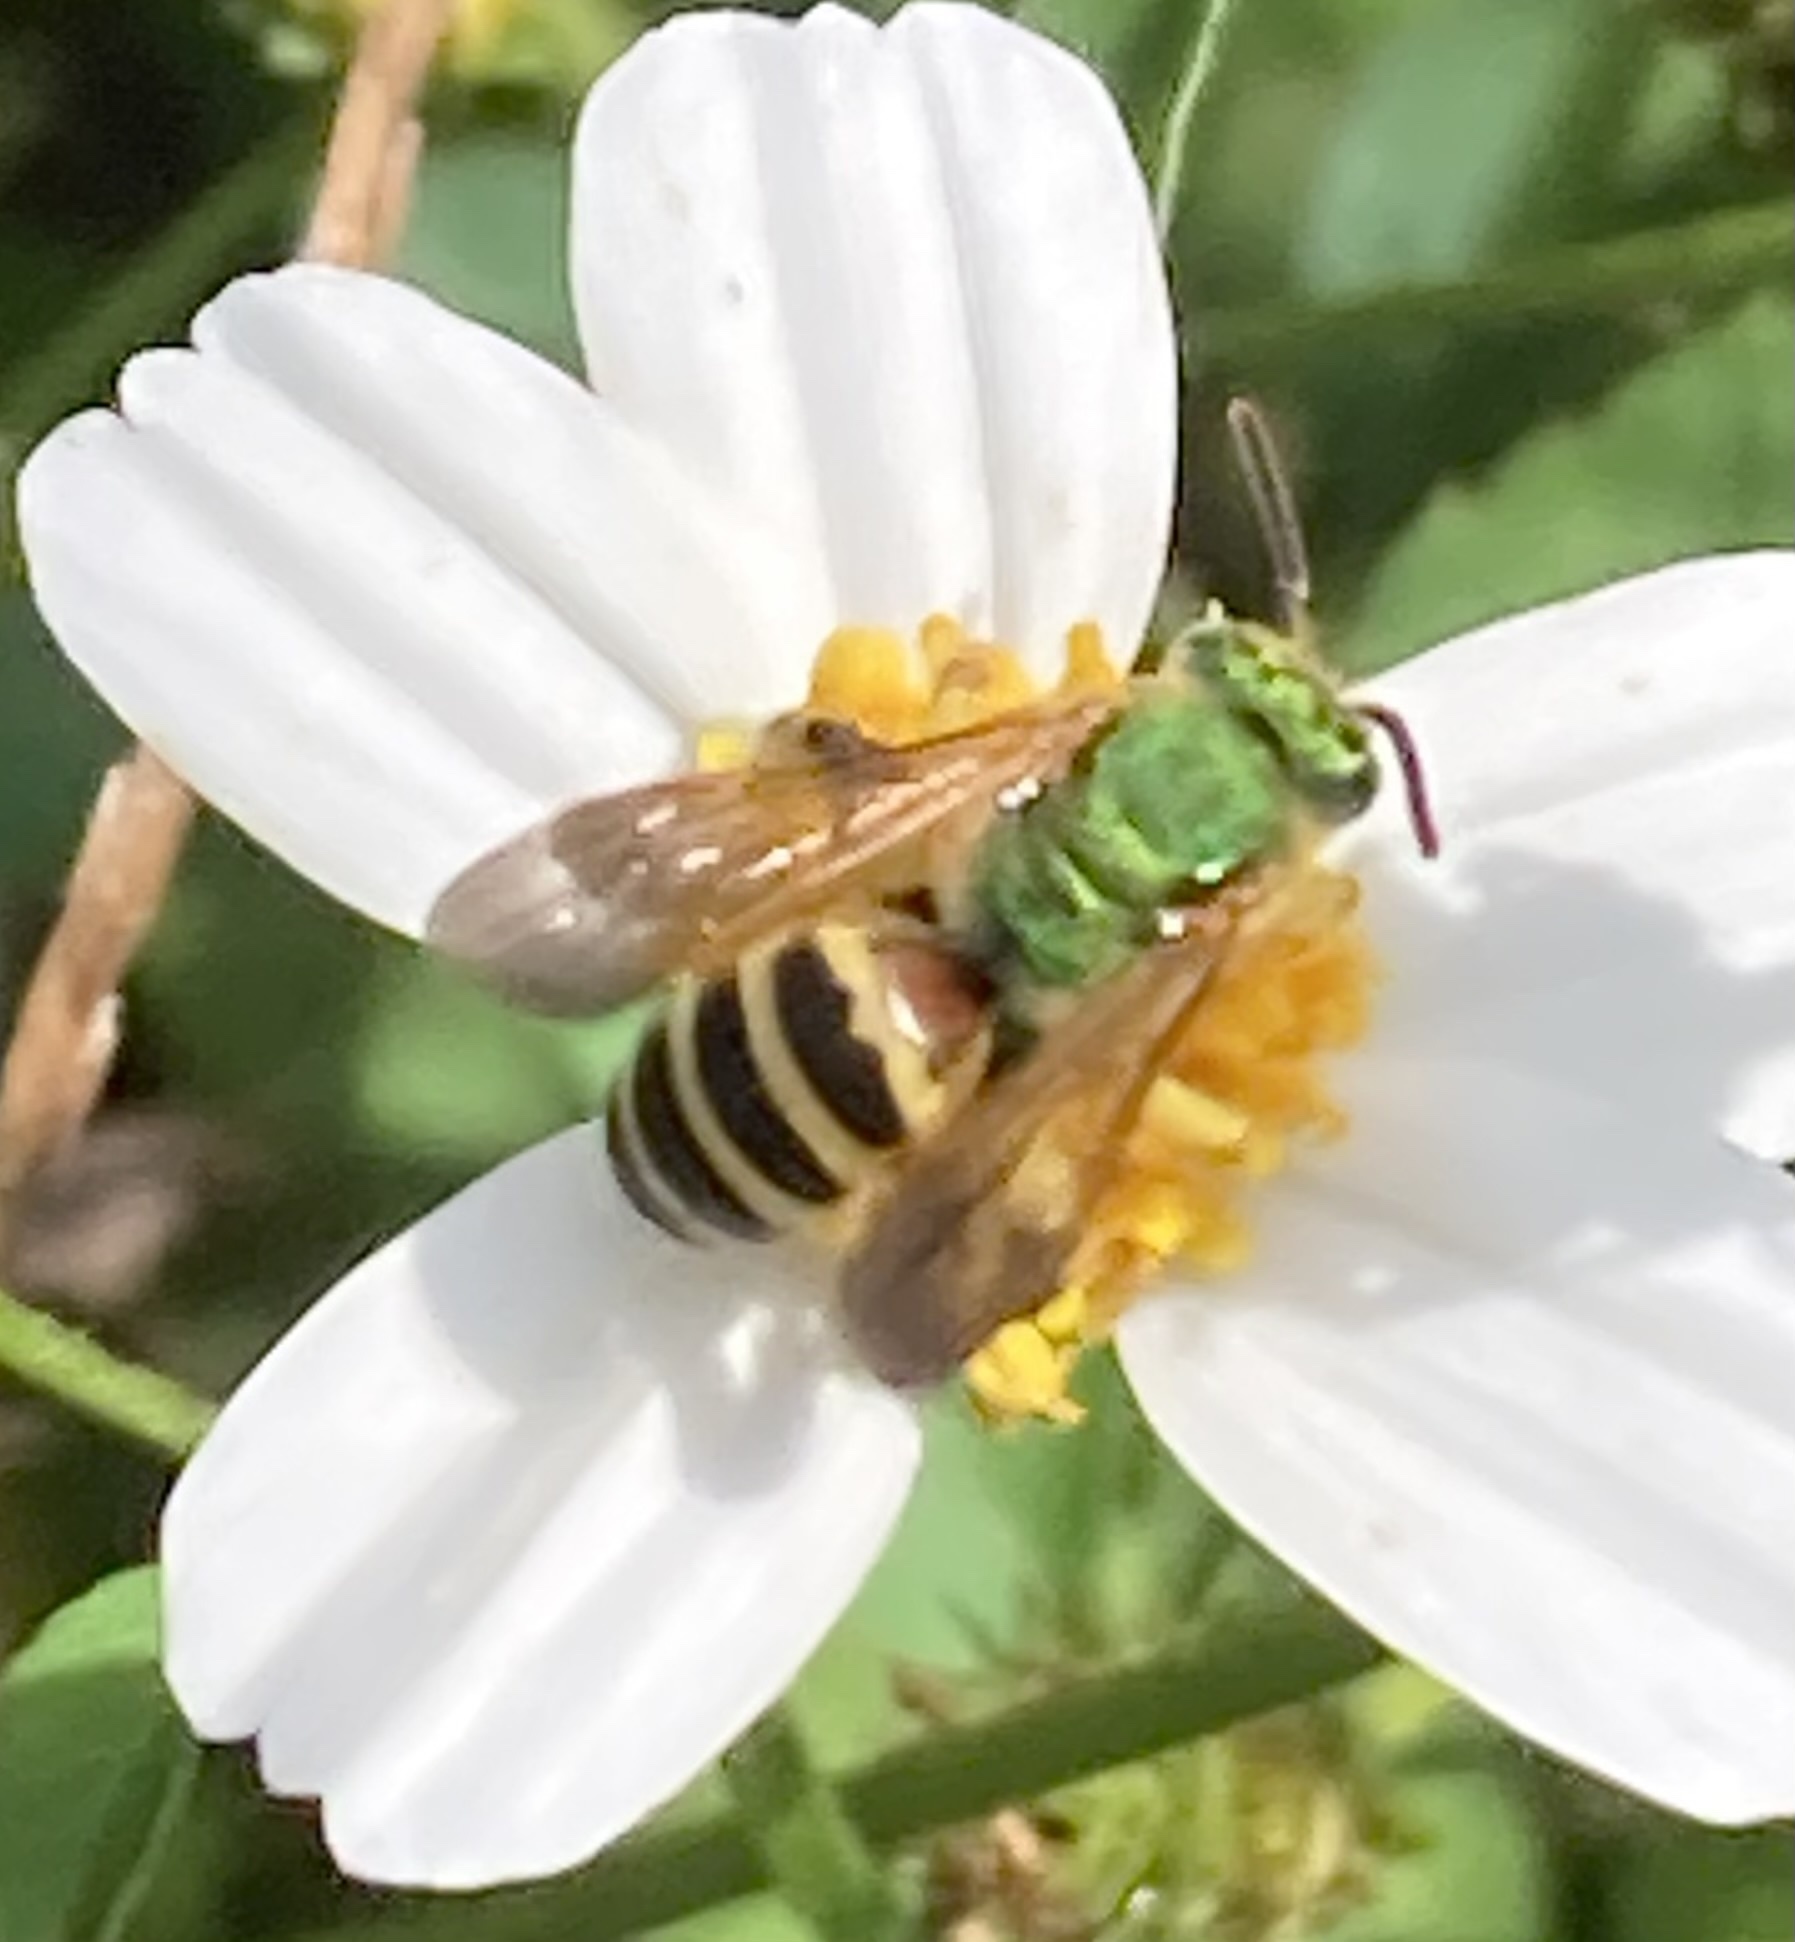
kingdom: Animalia
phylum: Arthropoda
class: Insecta
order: Hymenoptera
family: Halictidae
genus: Agapostemon
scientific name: Agapostemon splendens
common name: Brown-winged striped sweat bee
